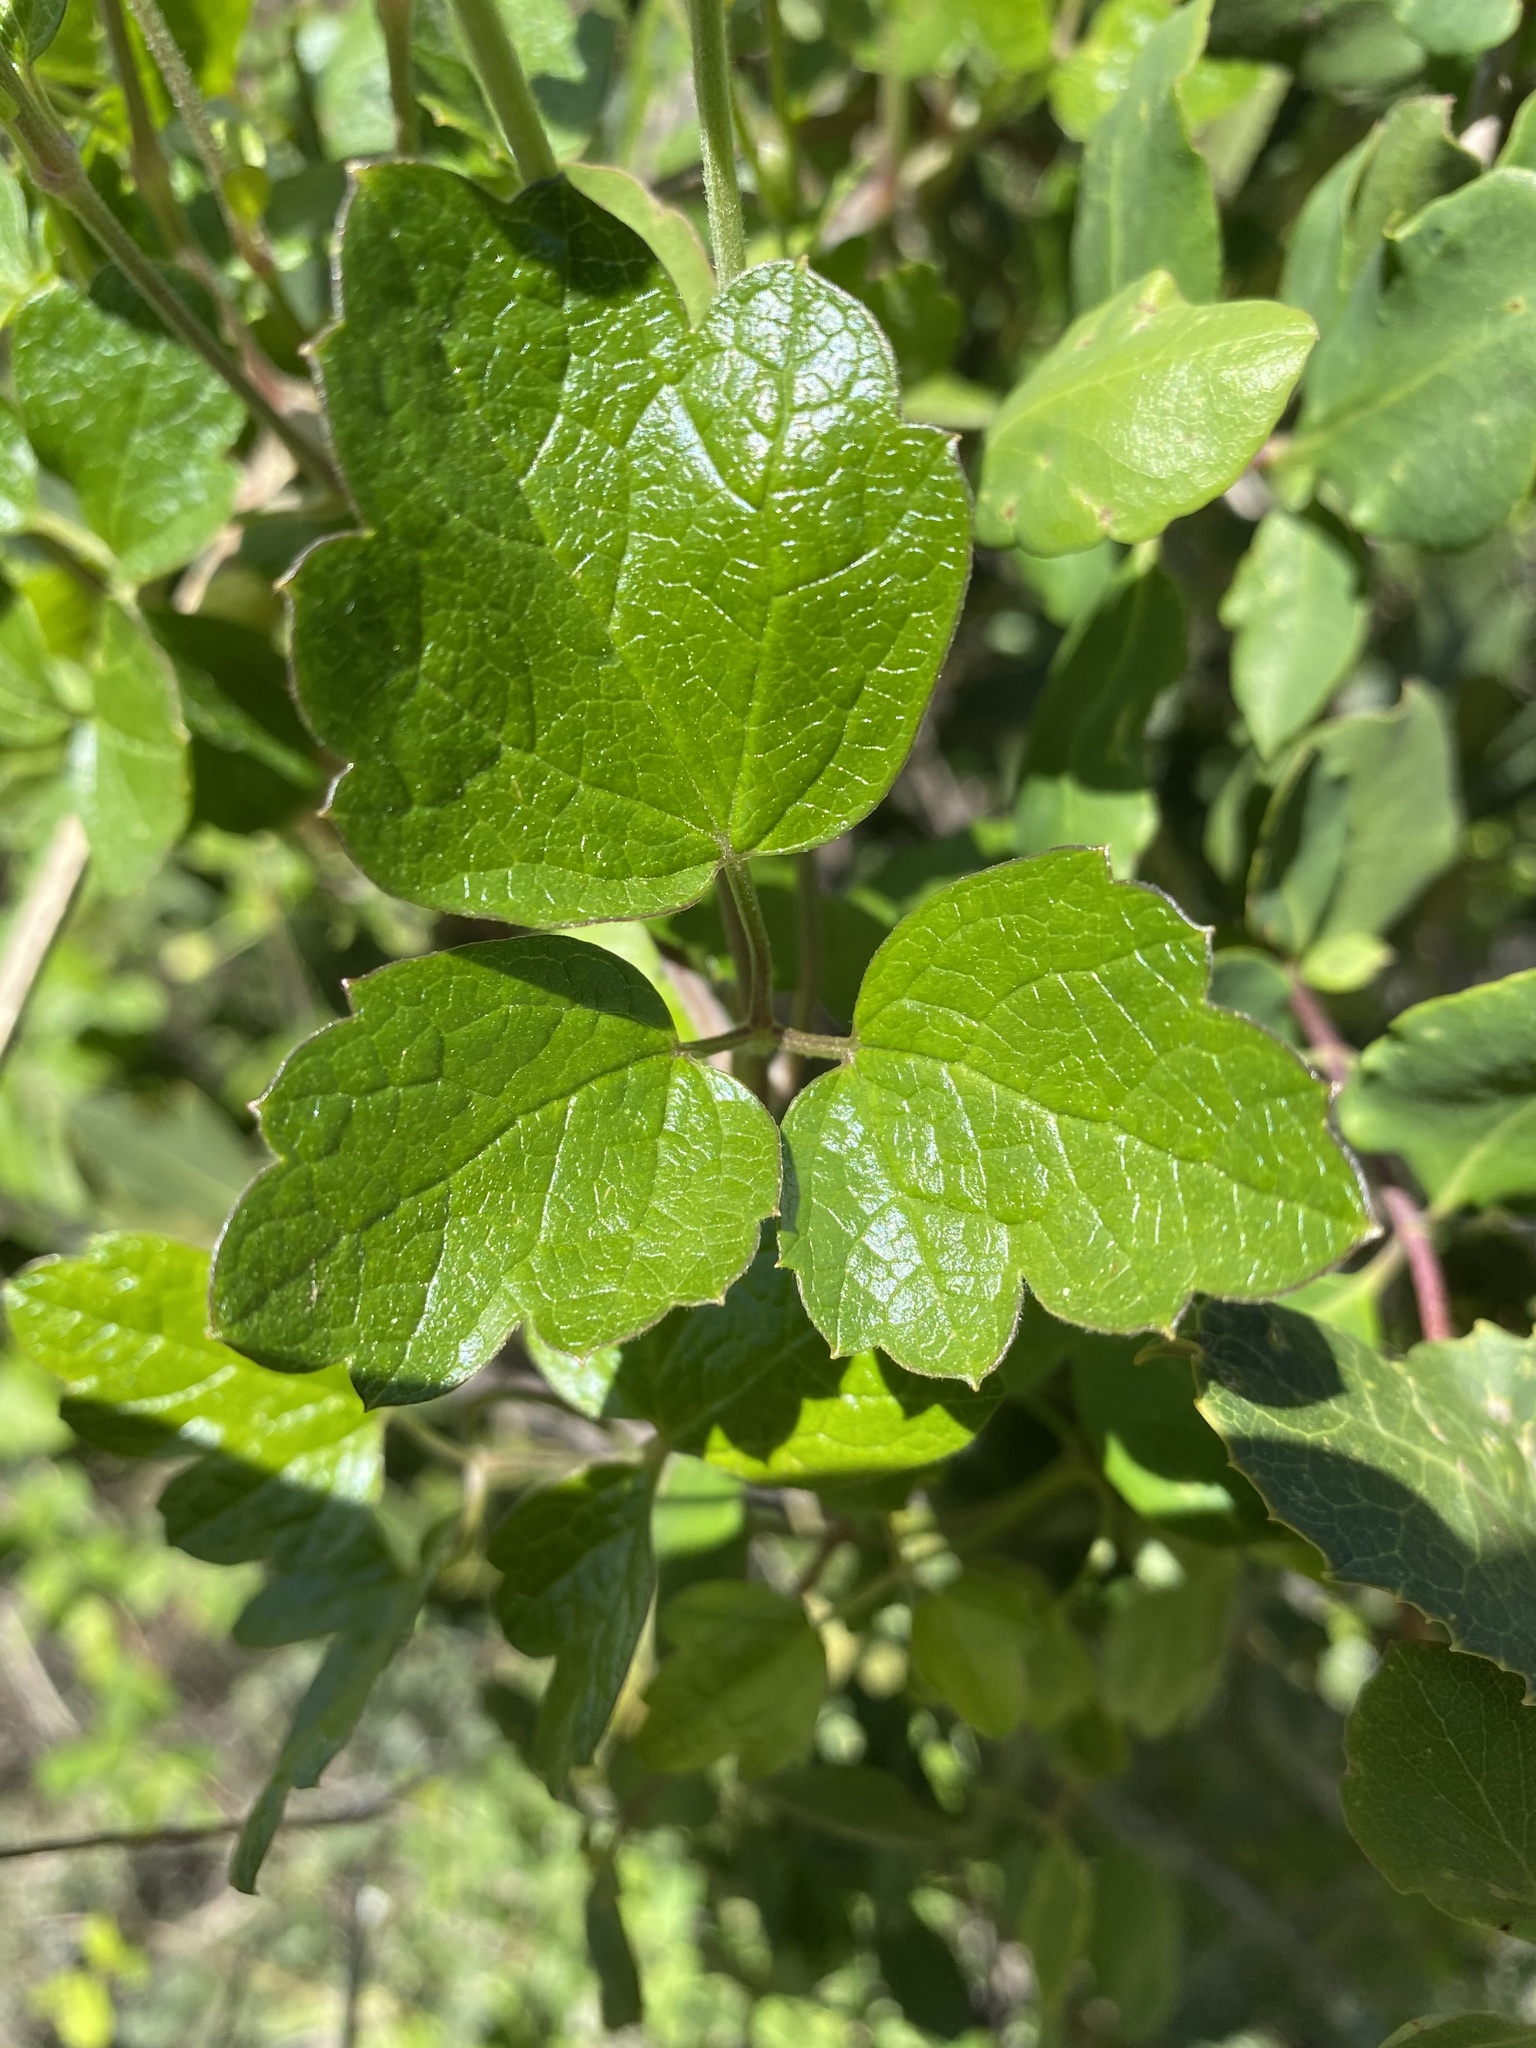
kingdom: Plantae
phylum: Tracheophyta
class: Magnoliopsida
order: Ranunculales
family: Ranunculaceae
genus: Clematis
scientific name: Clematis lasiantha
